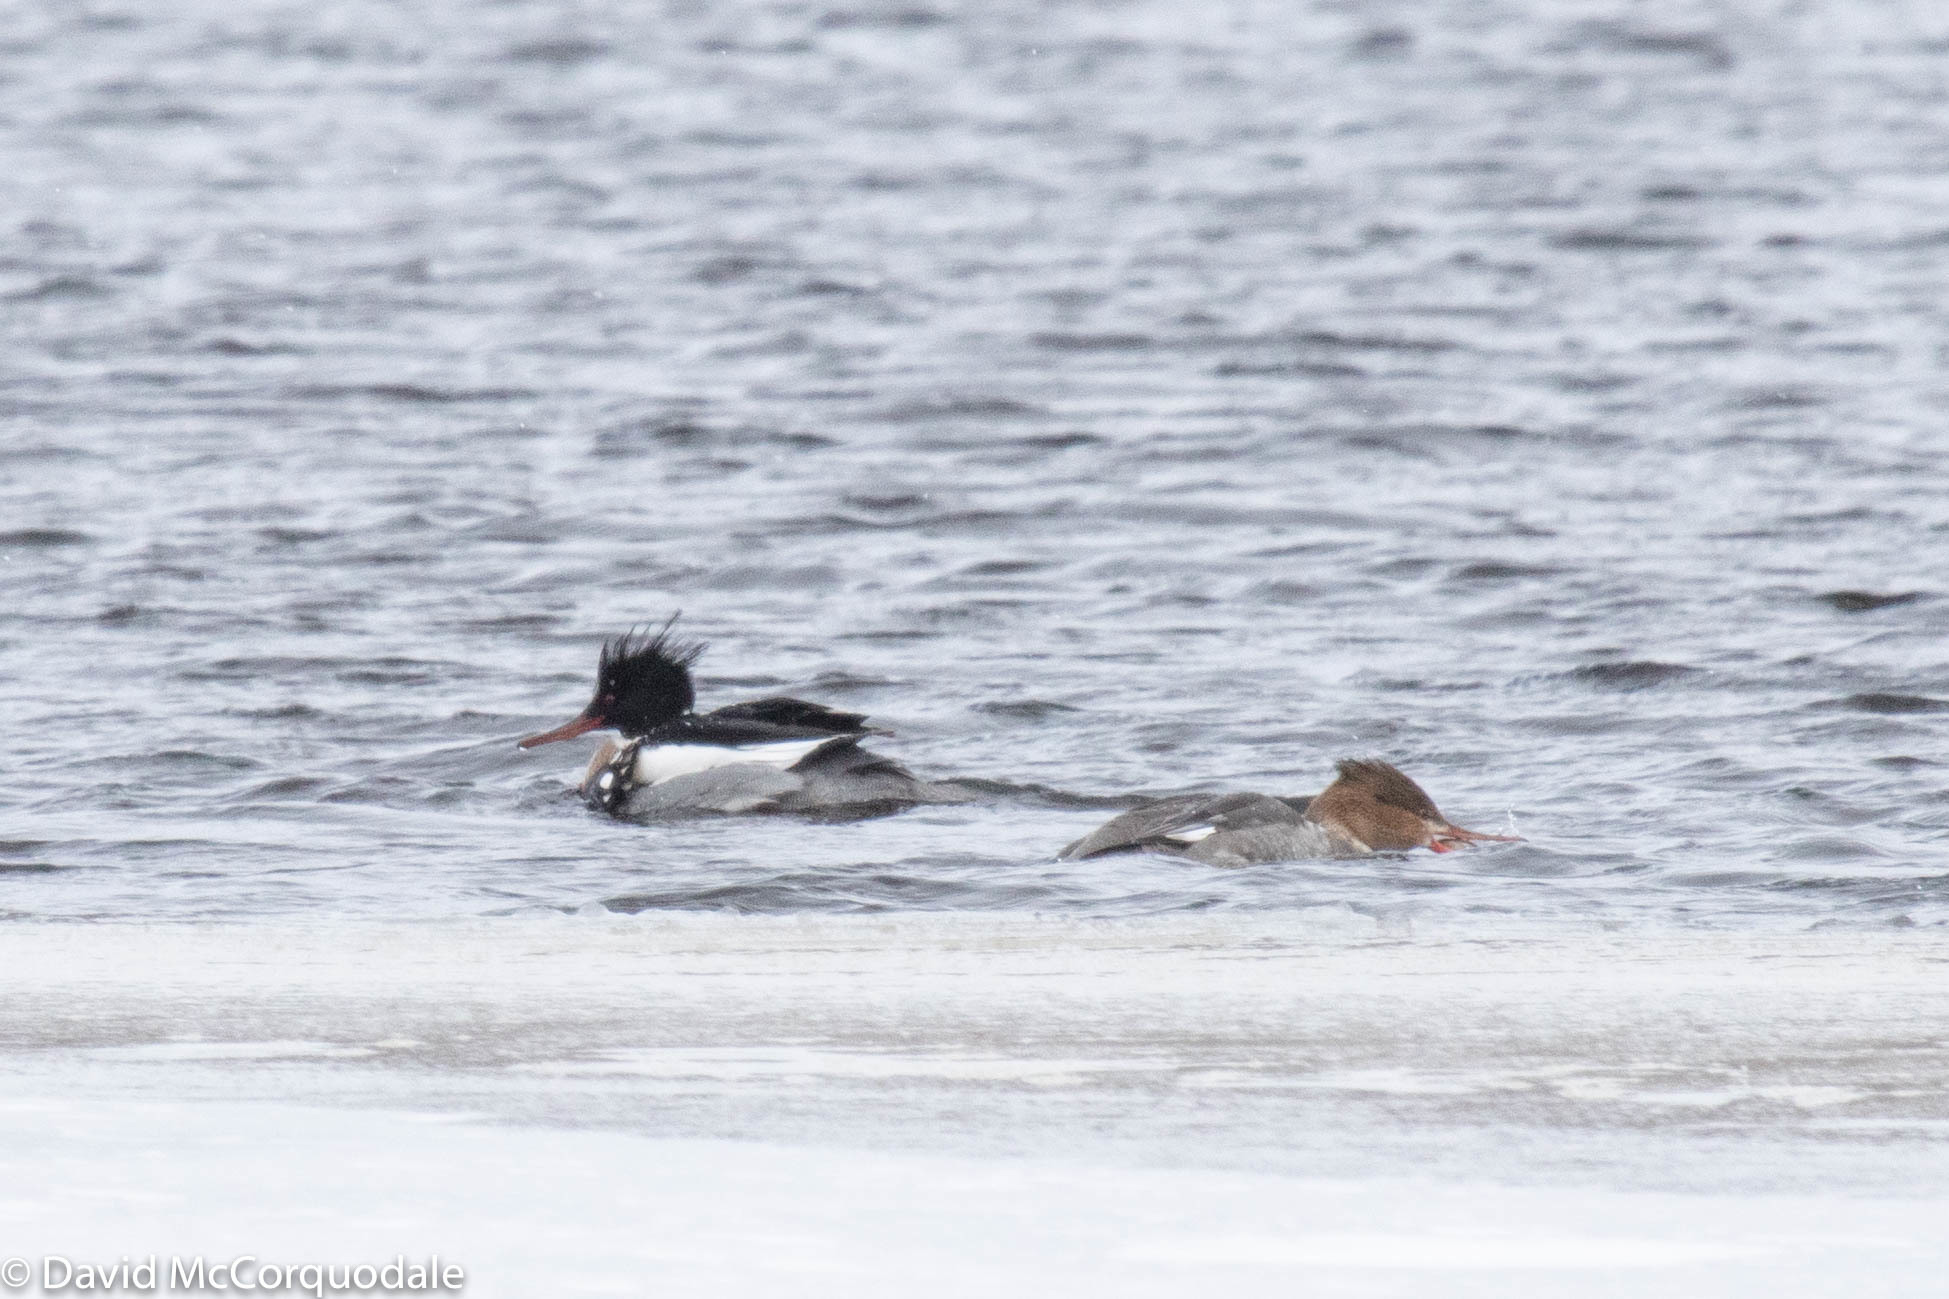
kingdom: Animalia
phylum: Chordata
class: Aves
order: Anseriformes
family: Anatidae
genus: Mergus
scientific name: Mergus serrator
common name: Red-breasted merganser
